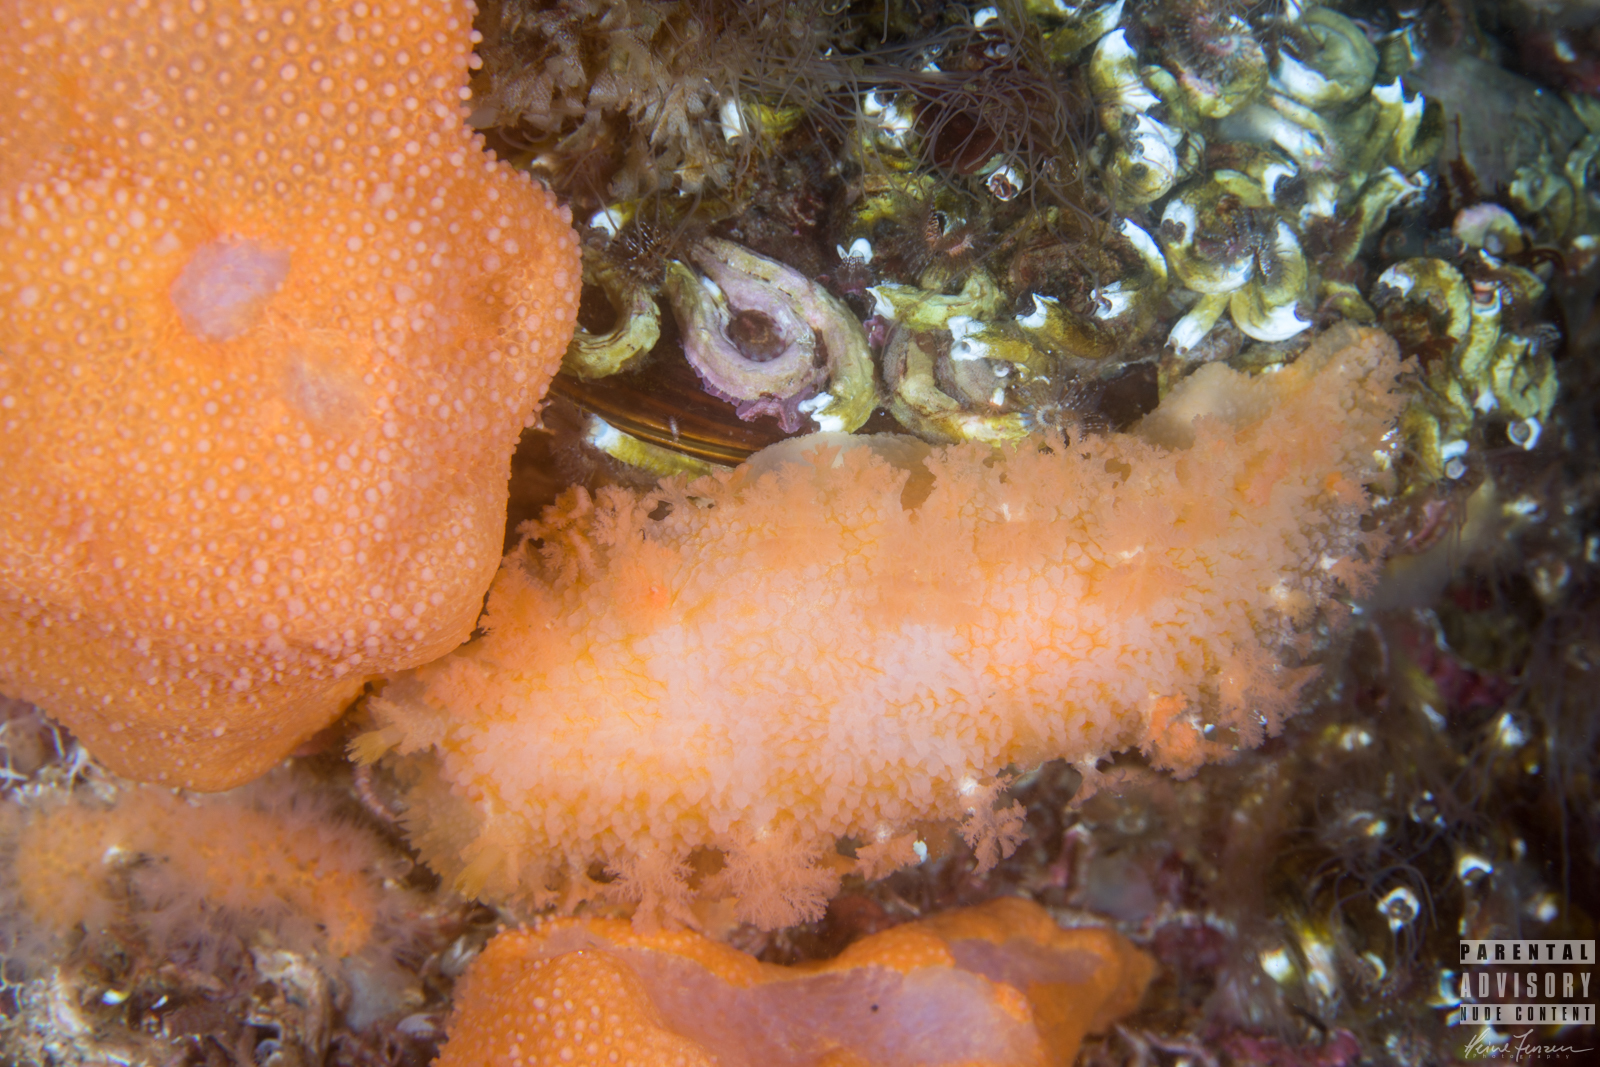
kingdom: Animalia
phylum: Mollusca
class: Gastropoda
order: Nudibranchia
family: Tritoniidae
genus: Tritonia
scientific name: Tritonia hombergii
